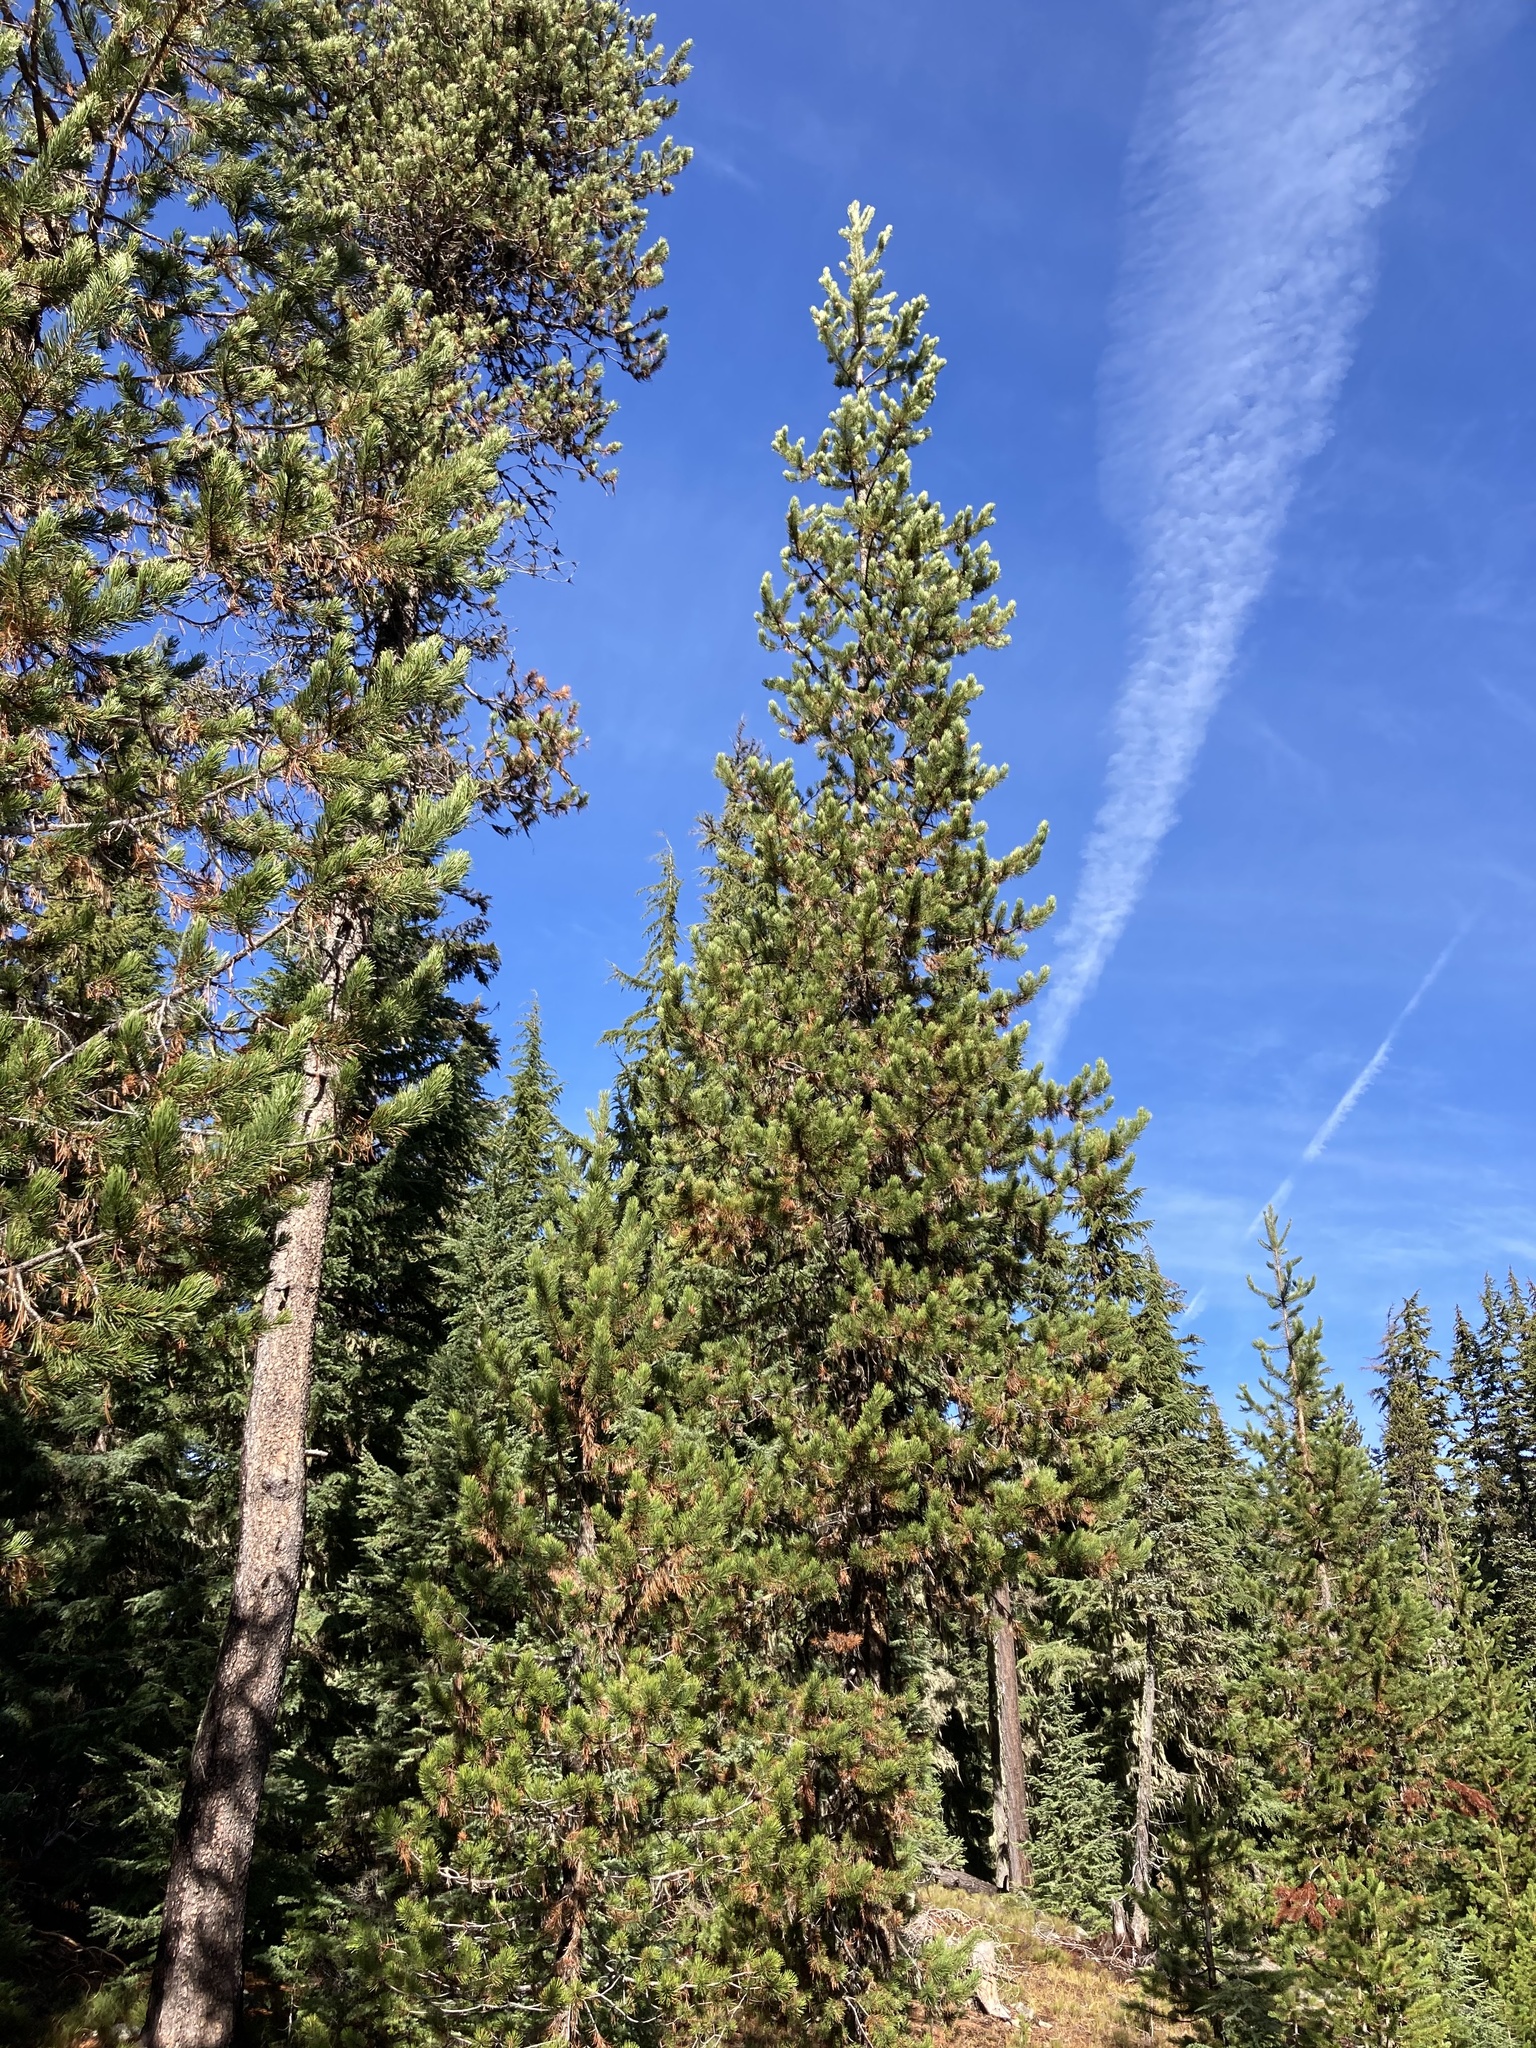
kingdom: Plantae
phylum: Tracheophyta
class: Pinopsida
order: Pinales
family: Pinaceae
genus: Pinus
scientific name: Pinus contorta
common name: Lodgepole pine
